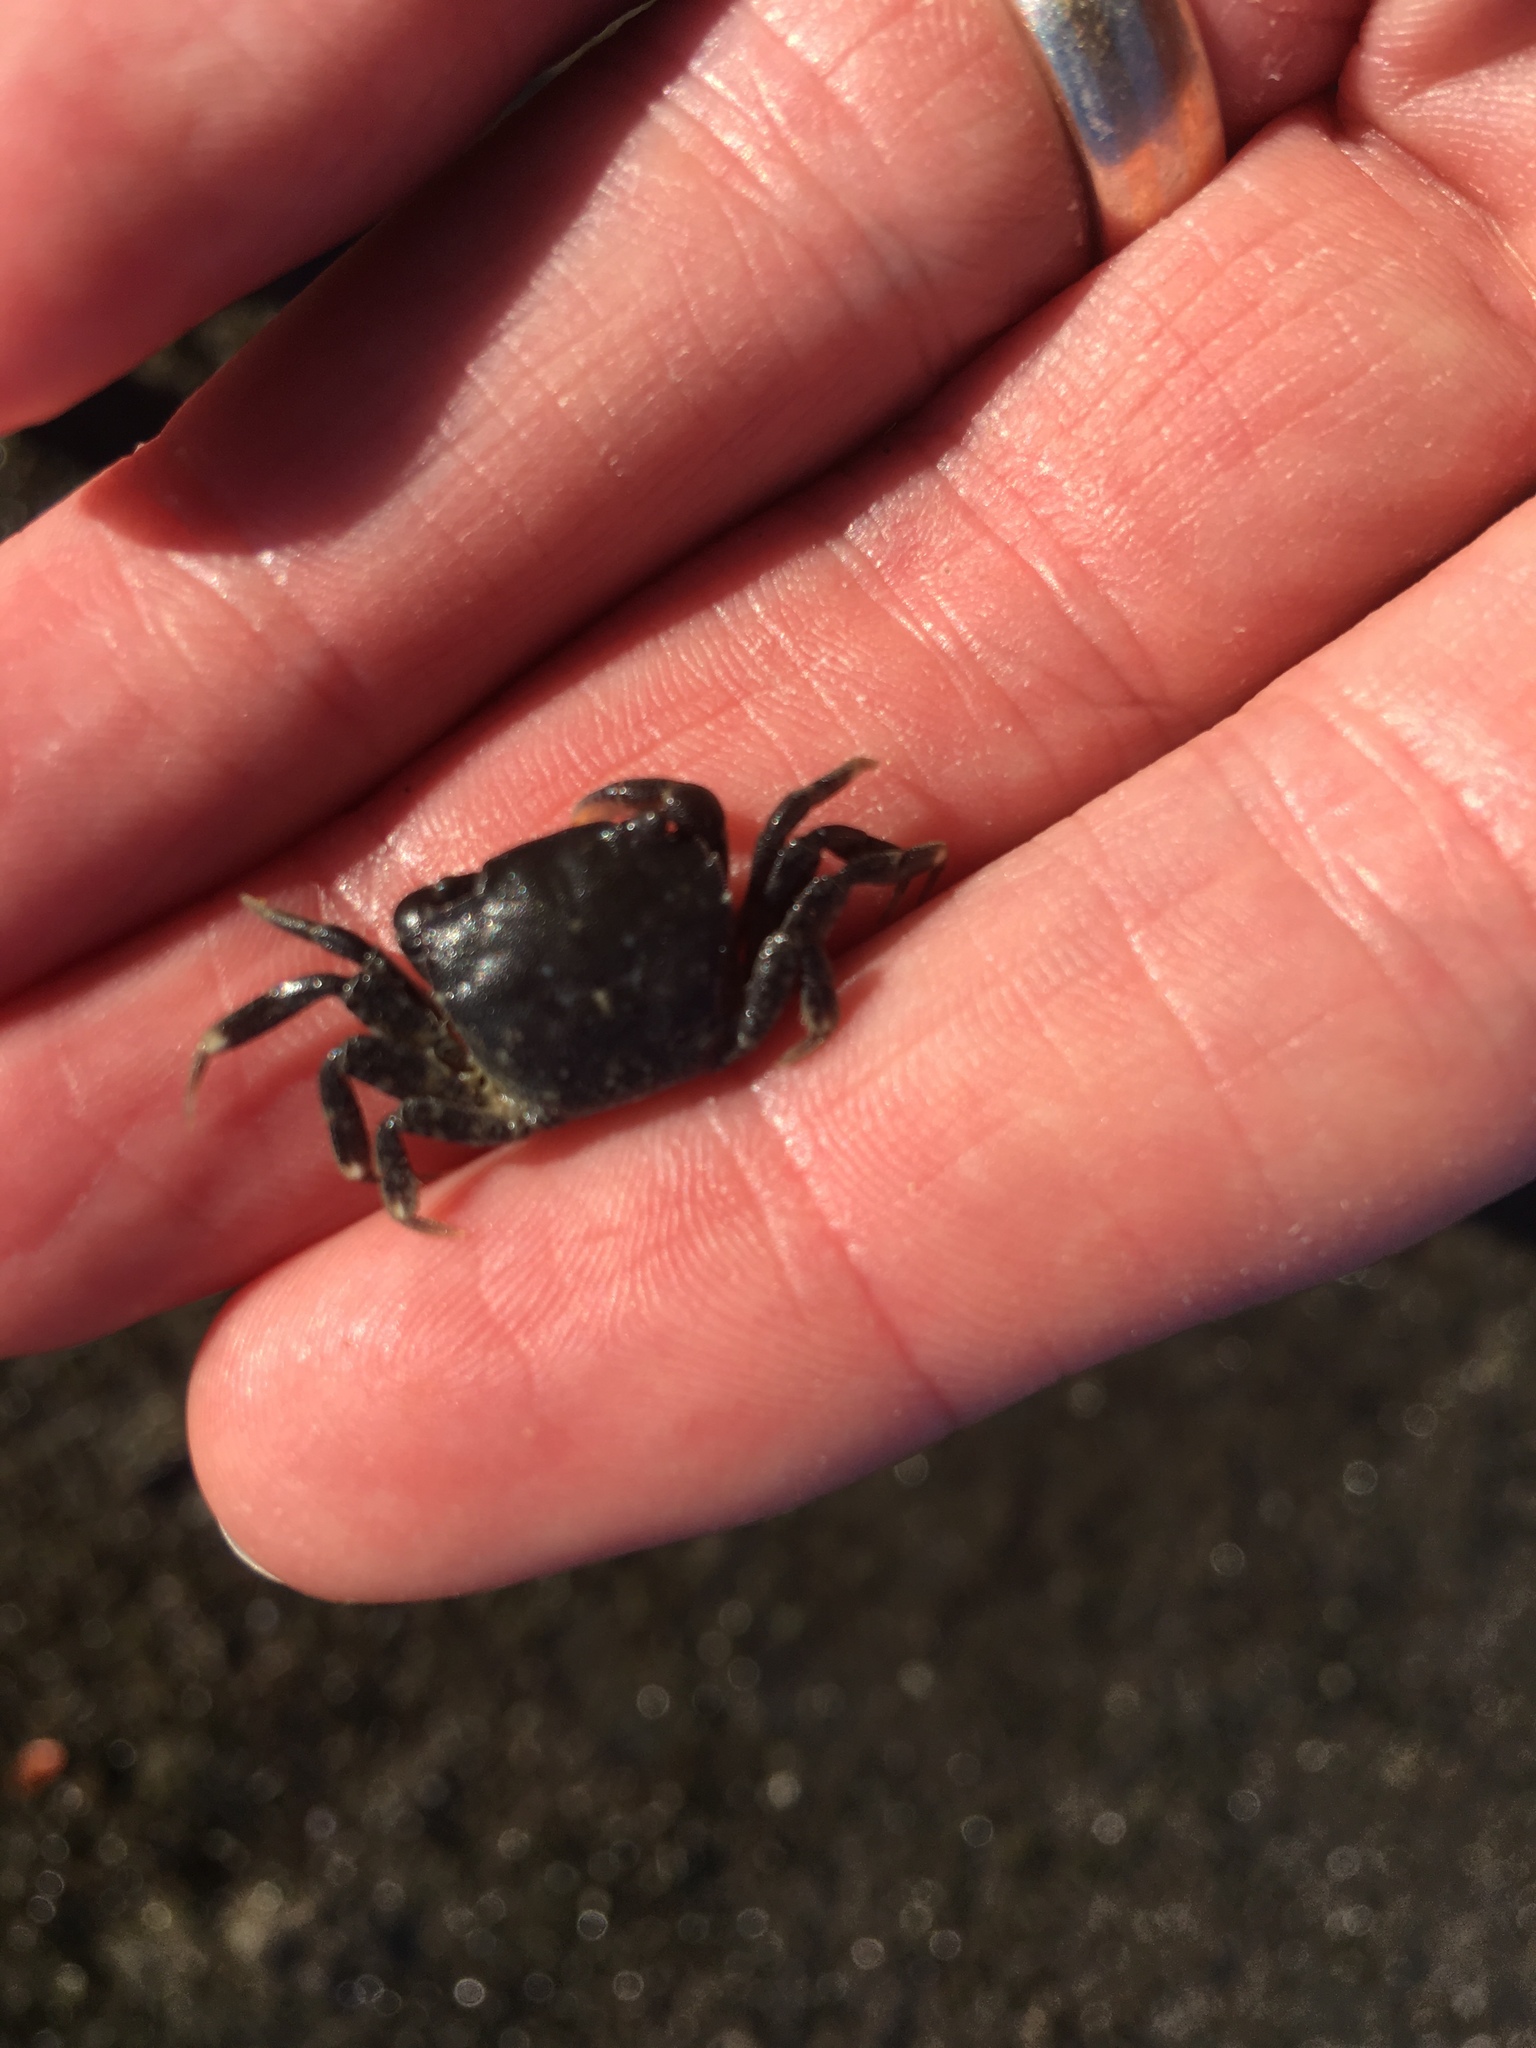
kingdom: Animalia
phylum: Arthropoda
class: Malacostraca
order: Decapoda
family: Varunidae
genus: Hemigrapsus
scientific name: Hemigrapsus crenulatus
